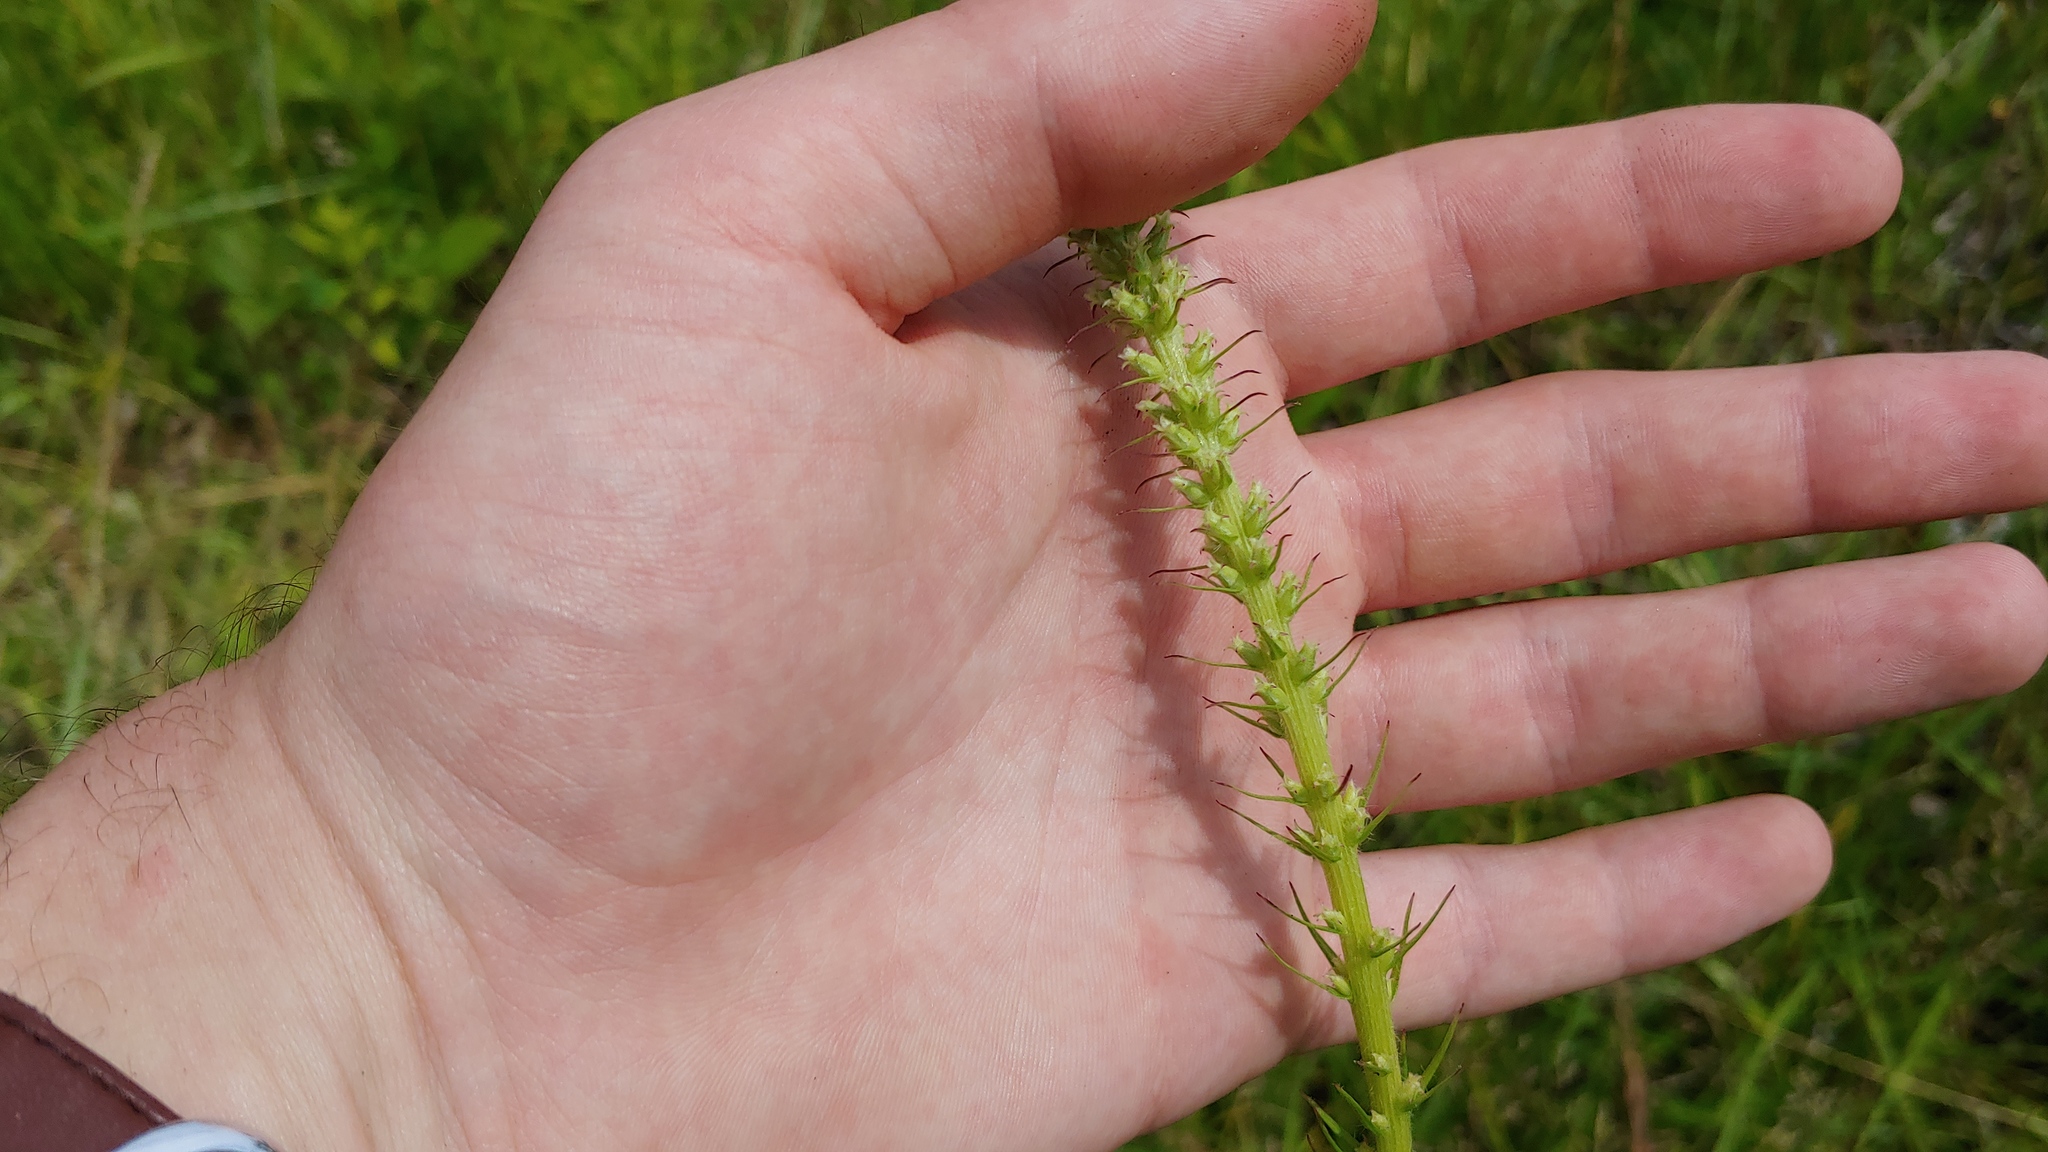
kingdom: Plantae
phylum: Tracheophyta
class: Magnoliopsida
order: Asterales
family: Asteraceae
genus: Liatris
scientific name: Liatris pycnostachya
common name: Cattail gayfeather
